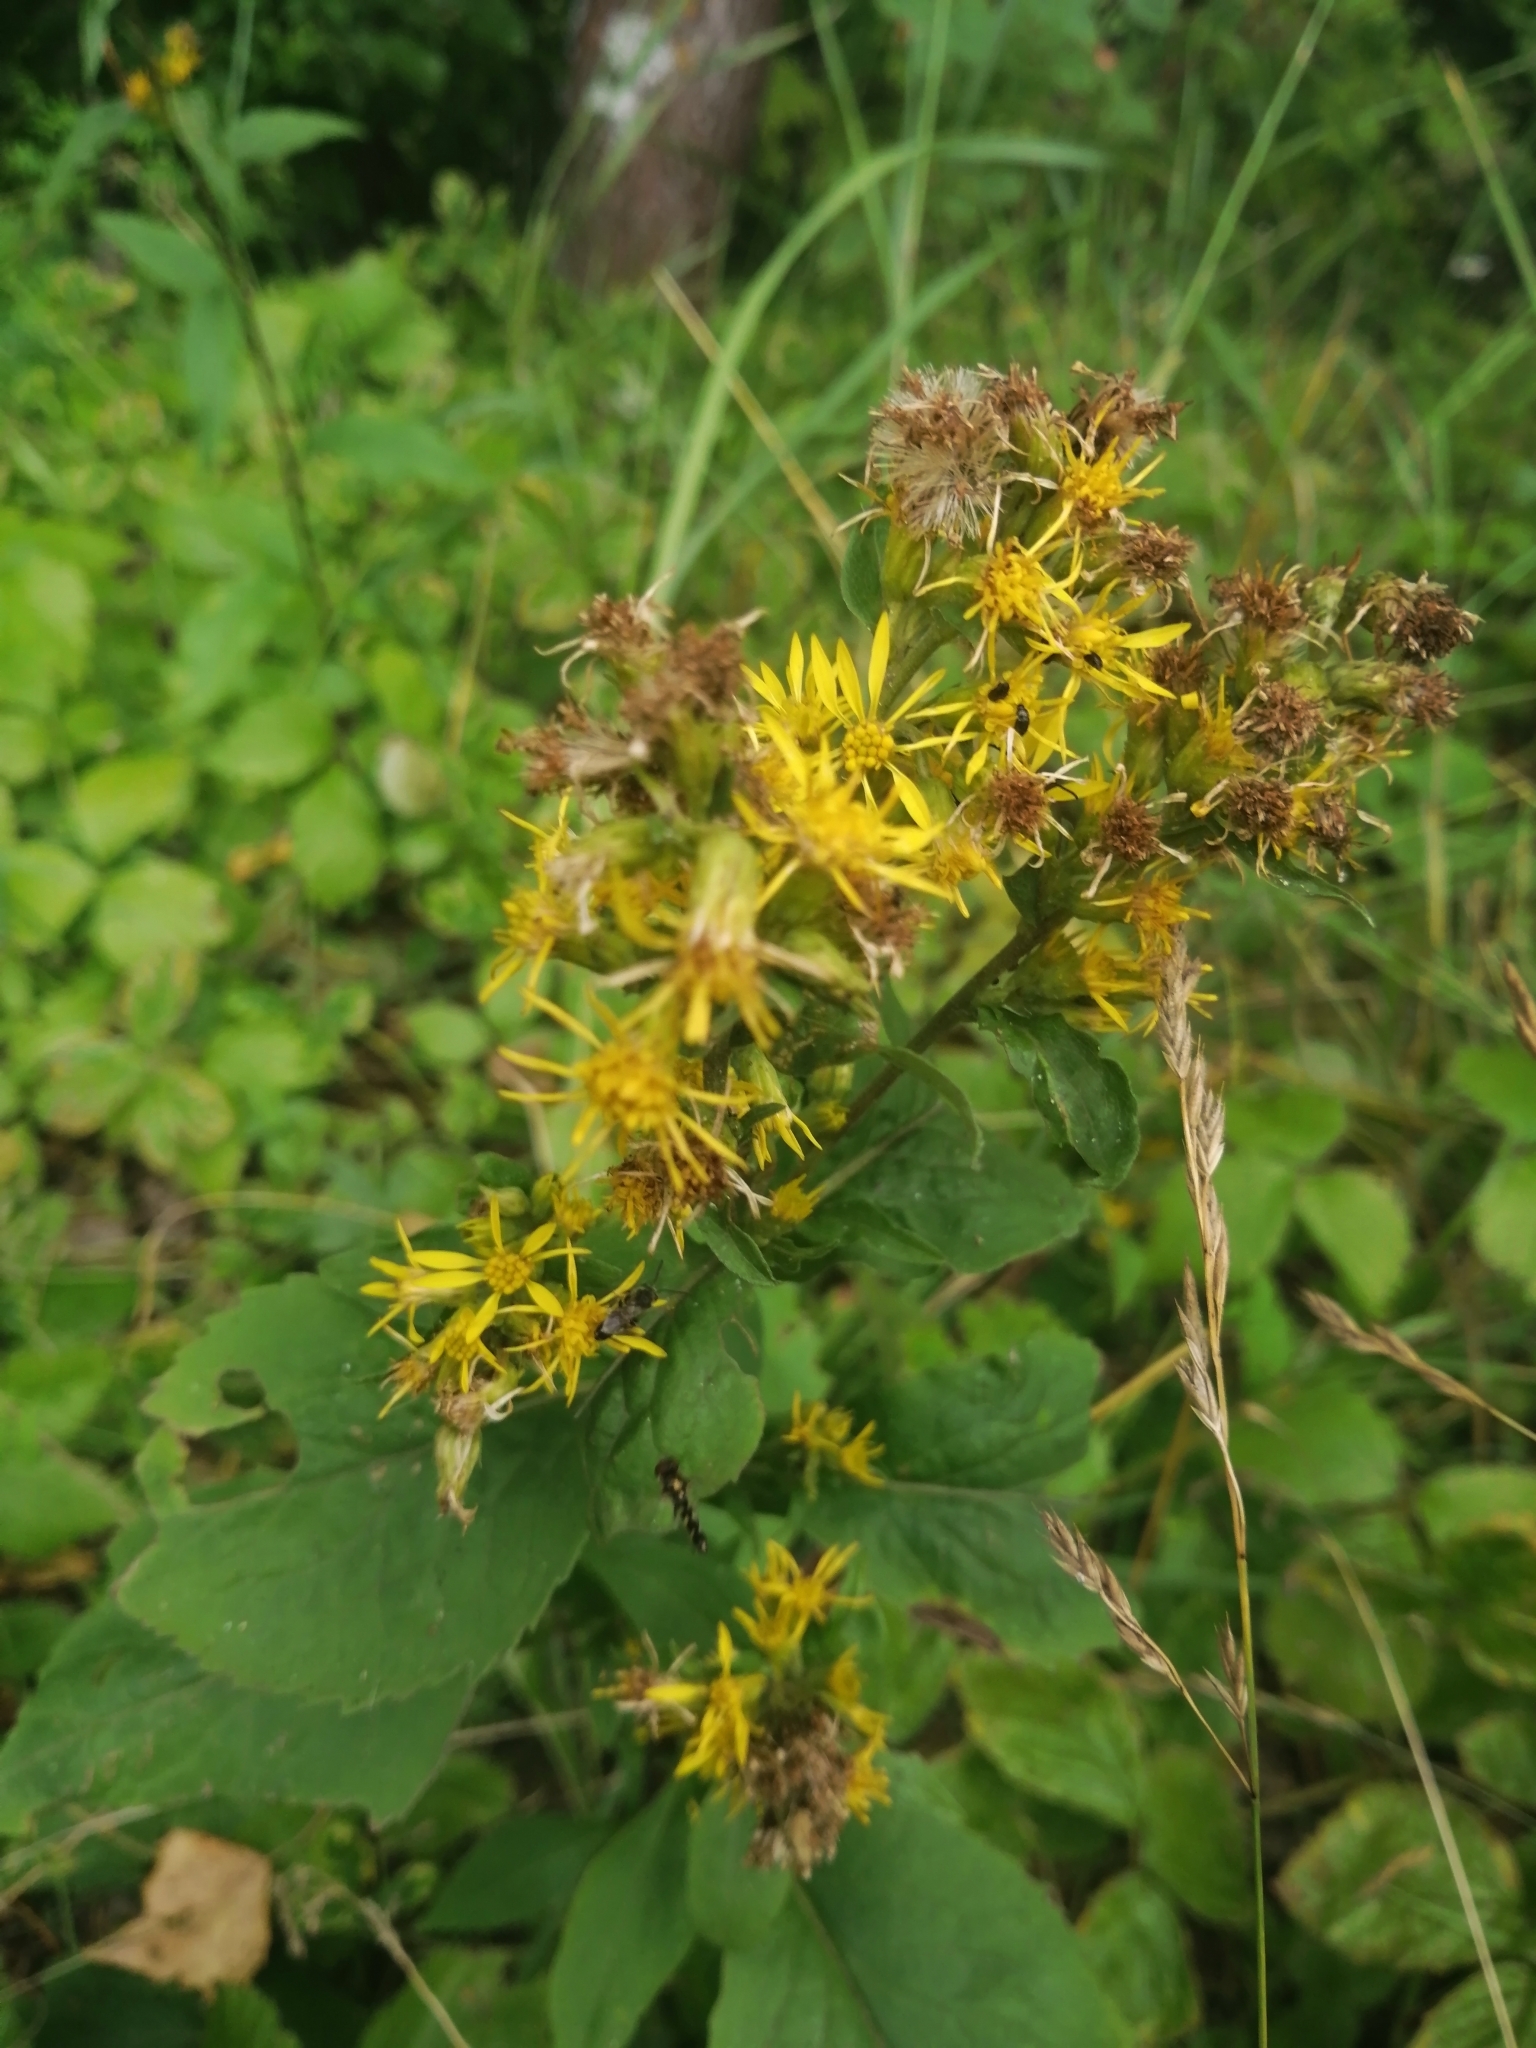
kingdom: Plantae
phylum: Tracheophyta
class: Magnoliopsida
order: Asterales
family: Asteraceae
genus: Solidago
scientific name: Solidago virgaurea
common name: Goldenrod
